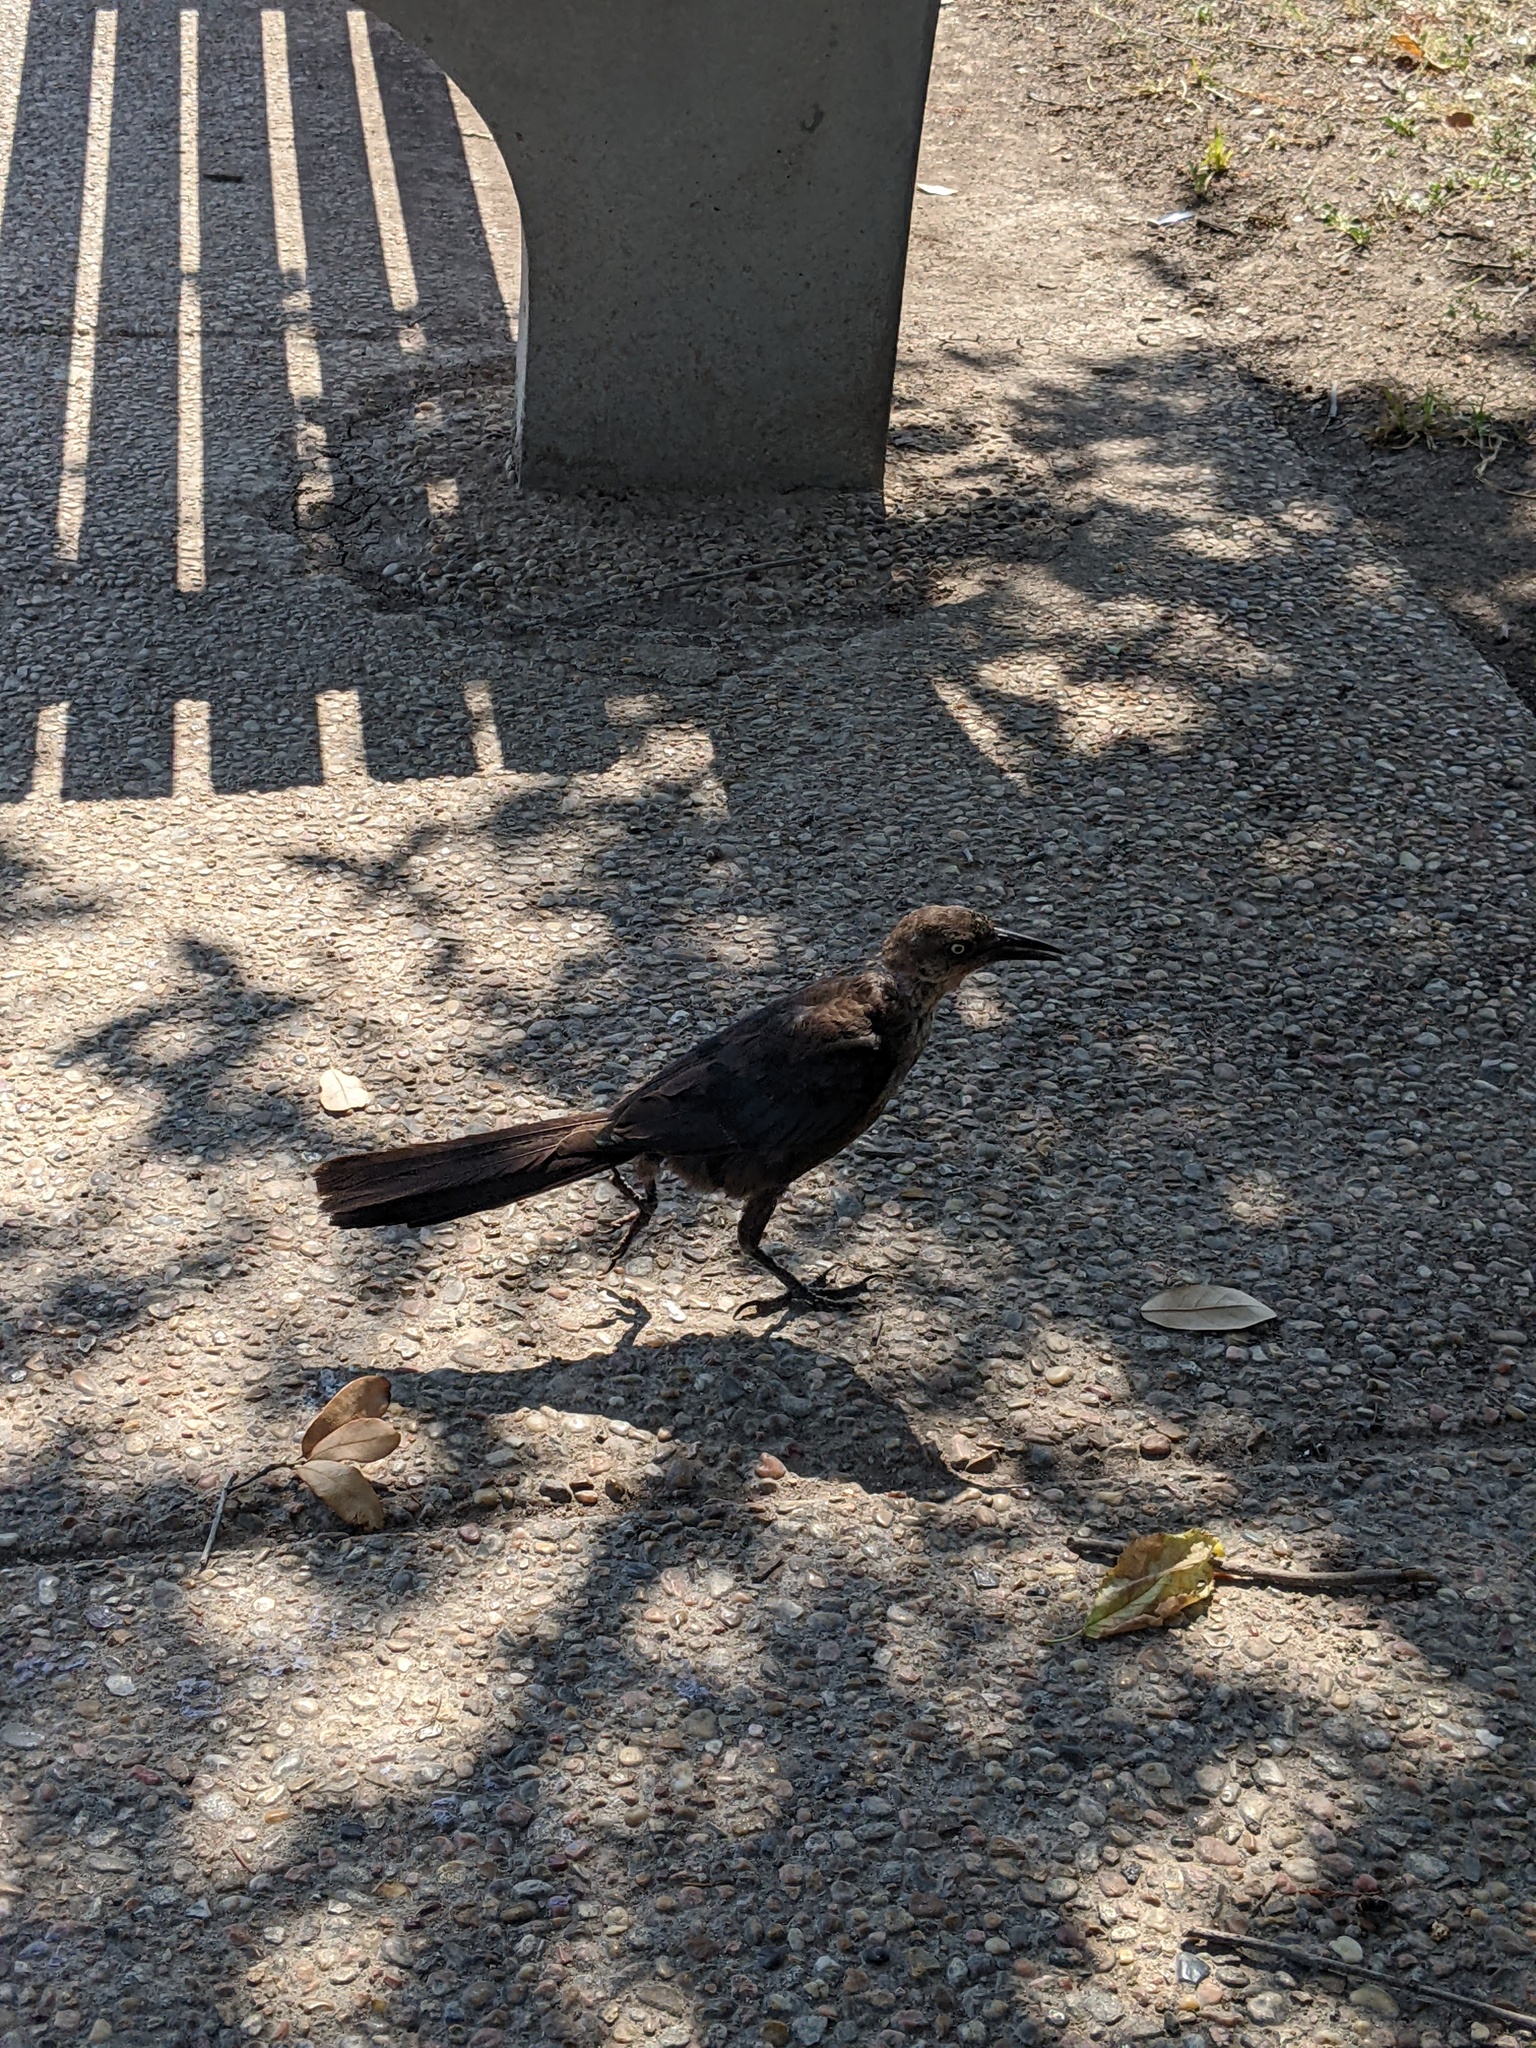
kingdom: Animalia
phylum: Chordata
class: Aves
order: Passeriformes
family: Icteridae
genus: Quiscalus
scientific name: Quiscalus mexicanus
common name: Great-tailed grackle
